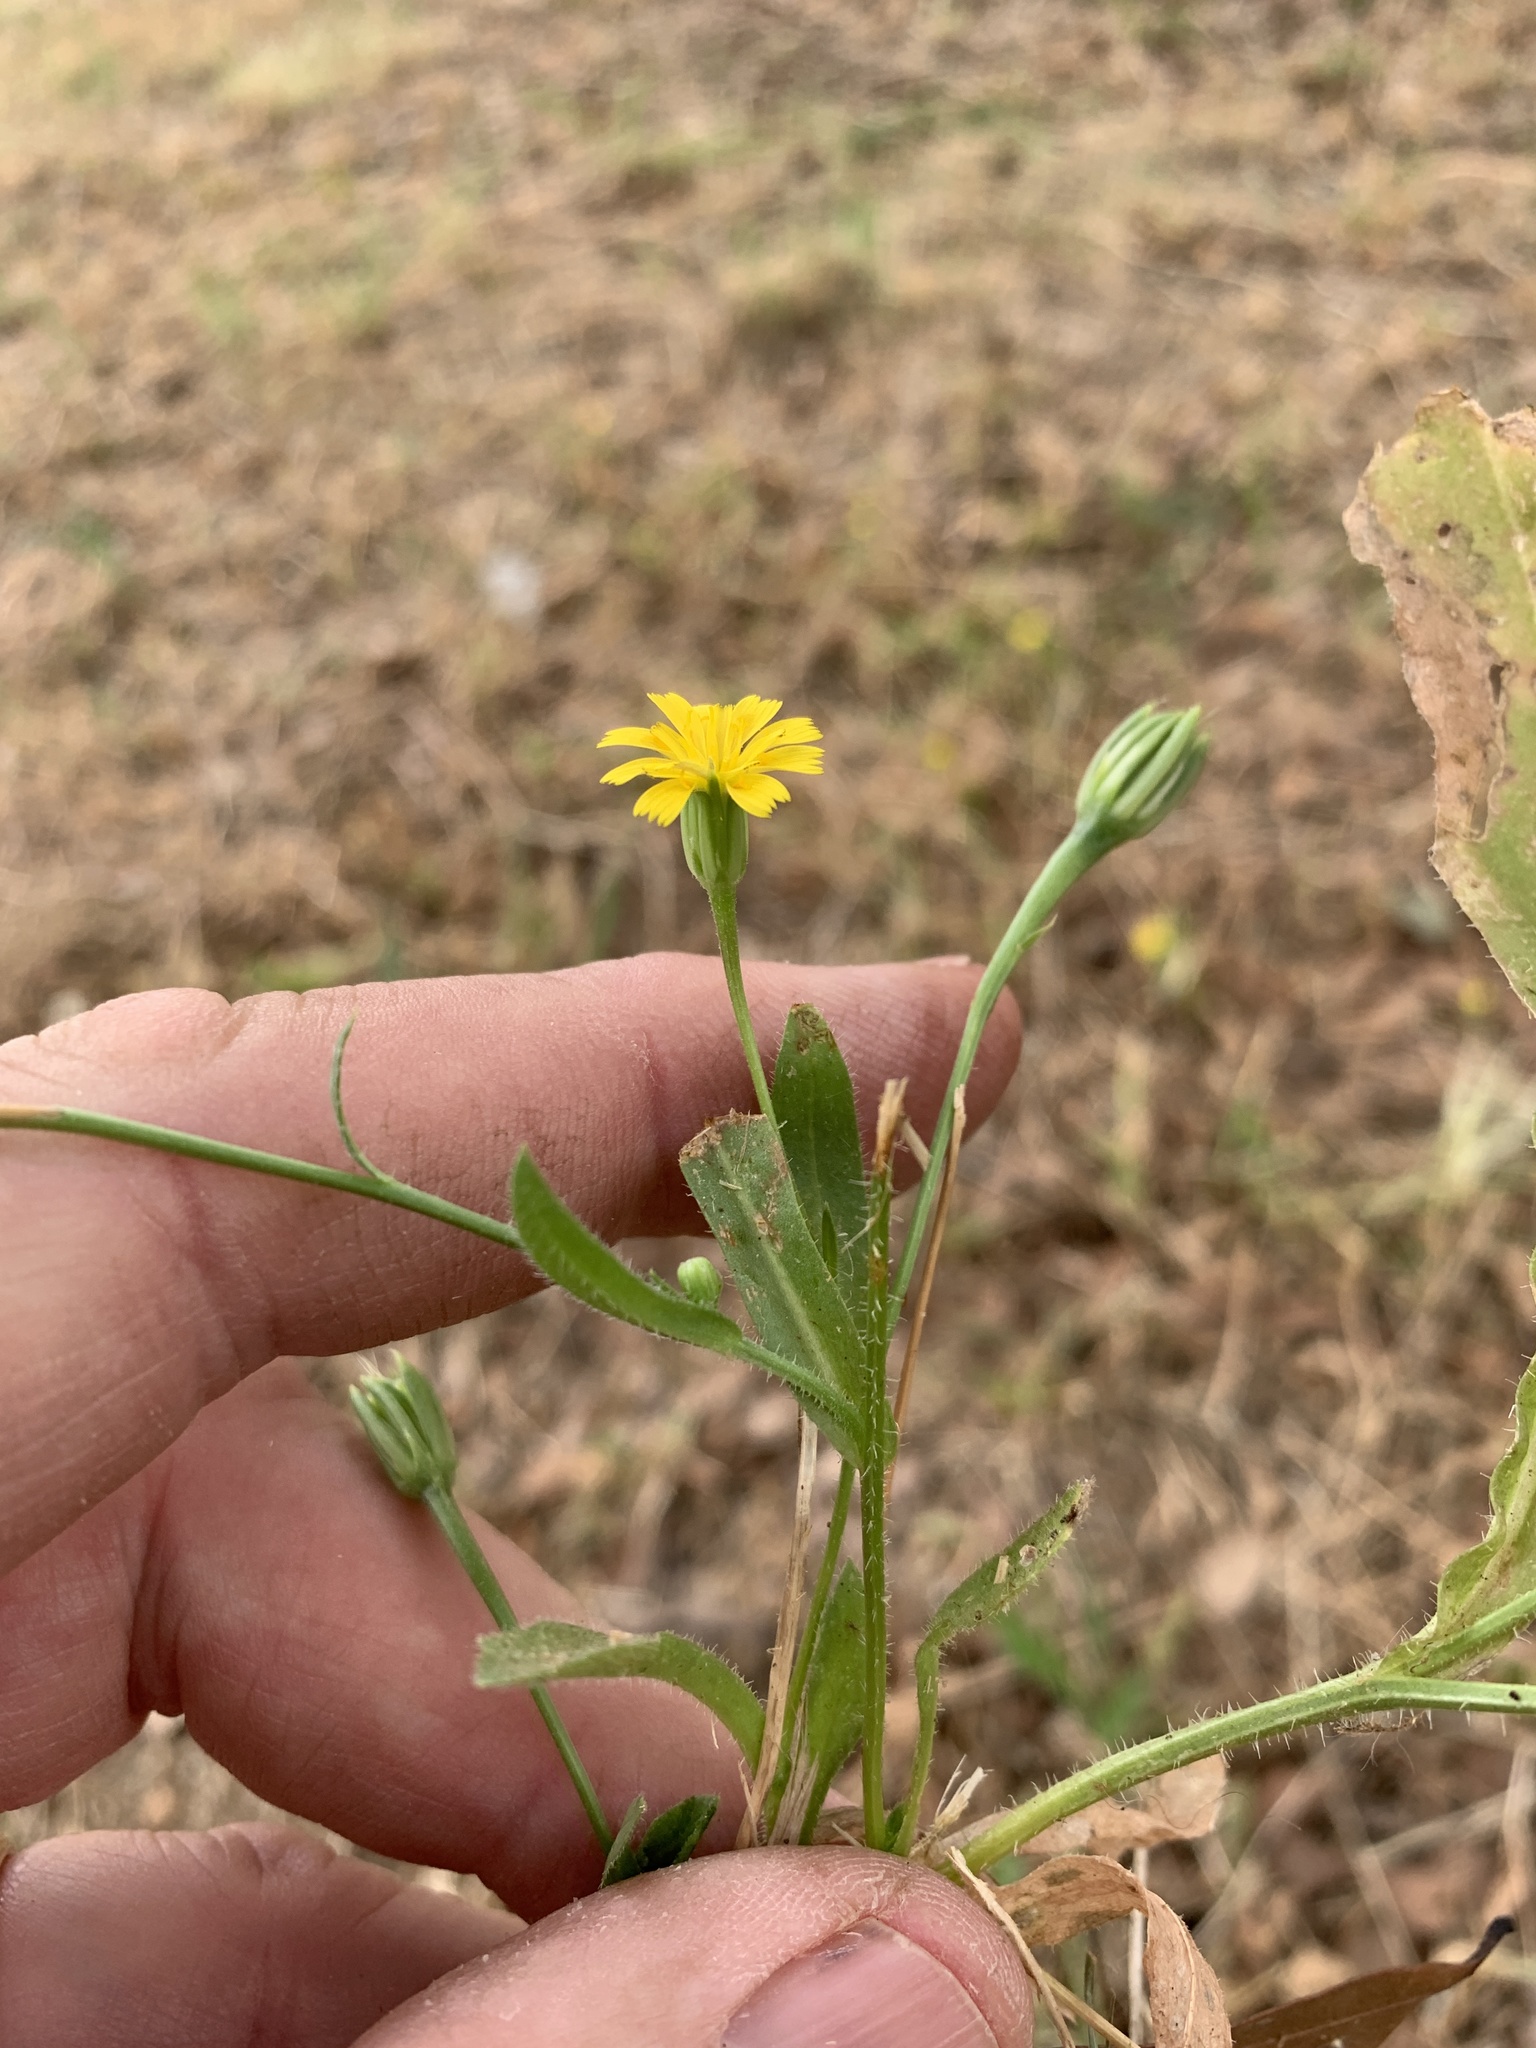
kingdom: Plantae
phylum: Tracheophyta
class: Magnoliopsida
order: Asterales
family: Asteraceae
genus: Hedypnois
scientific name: Hedypnois rhagadioloides
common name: Cretan weed
